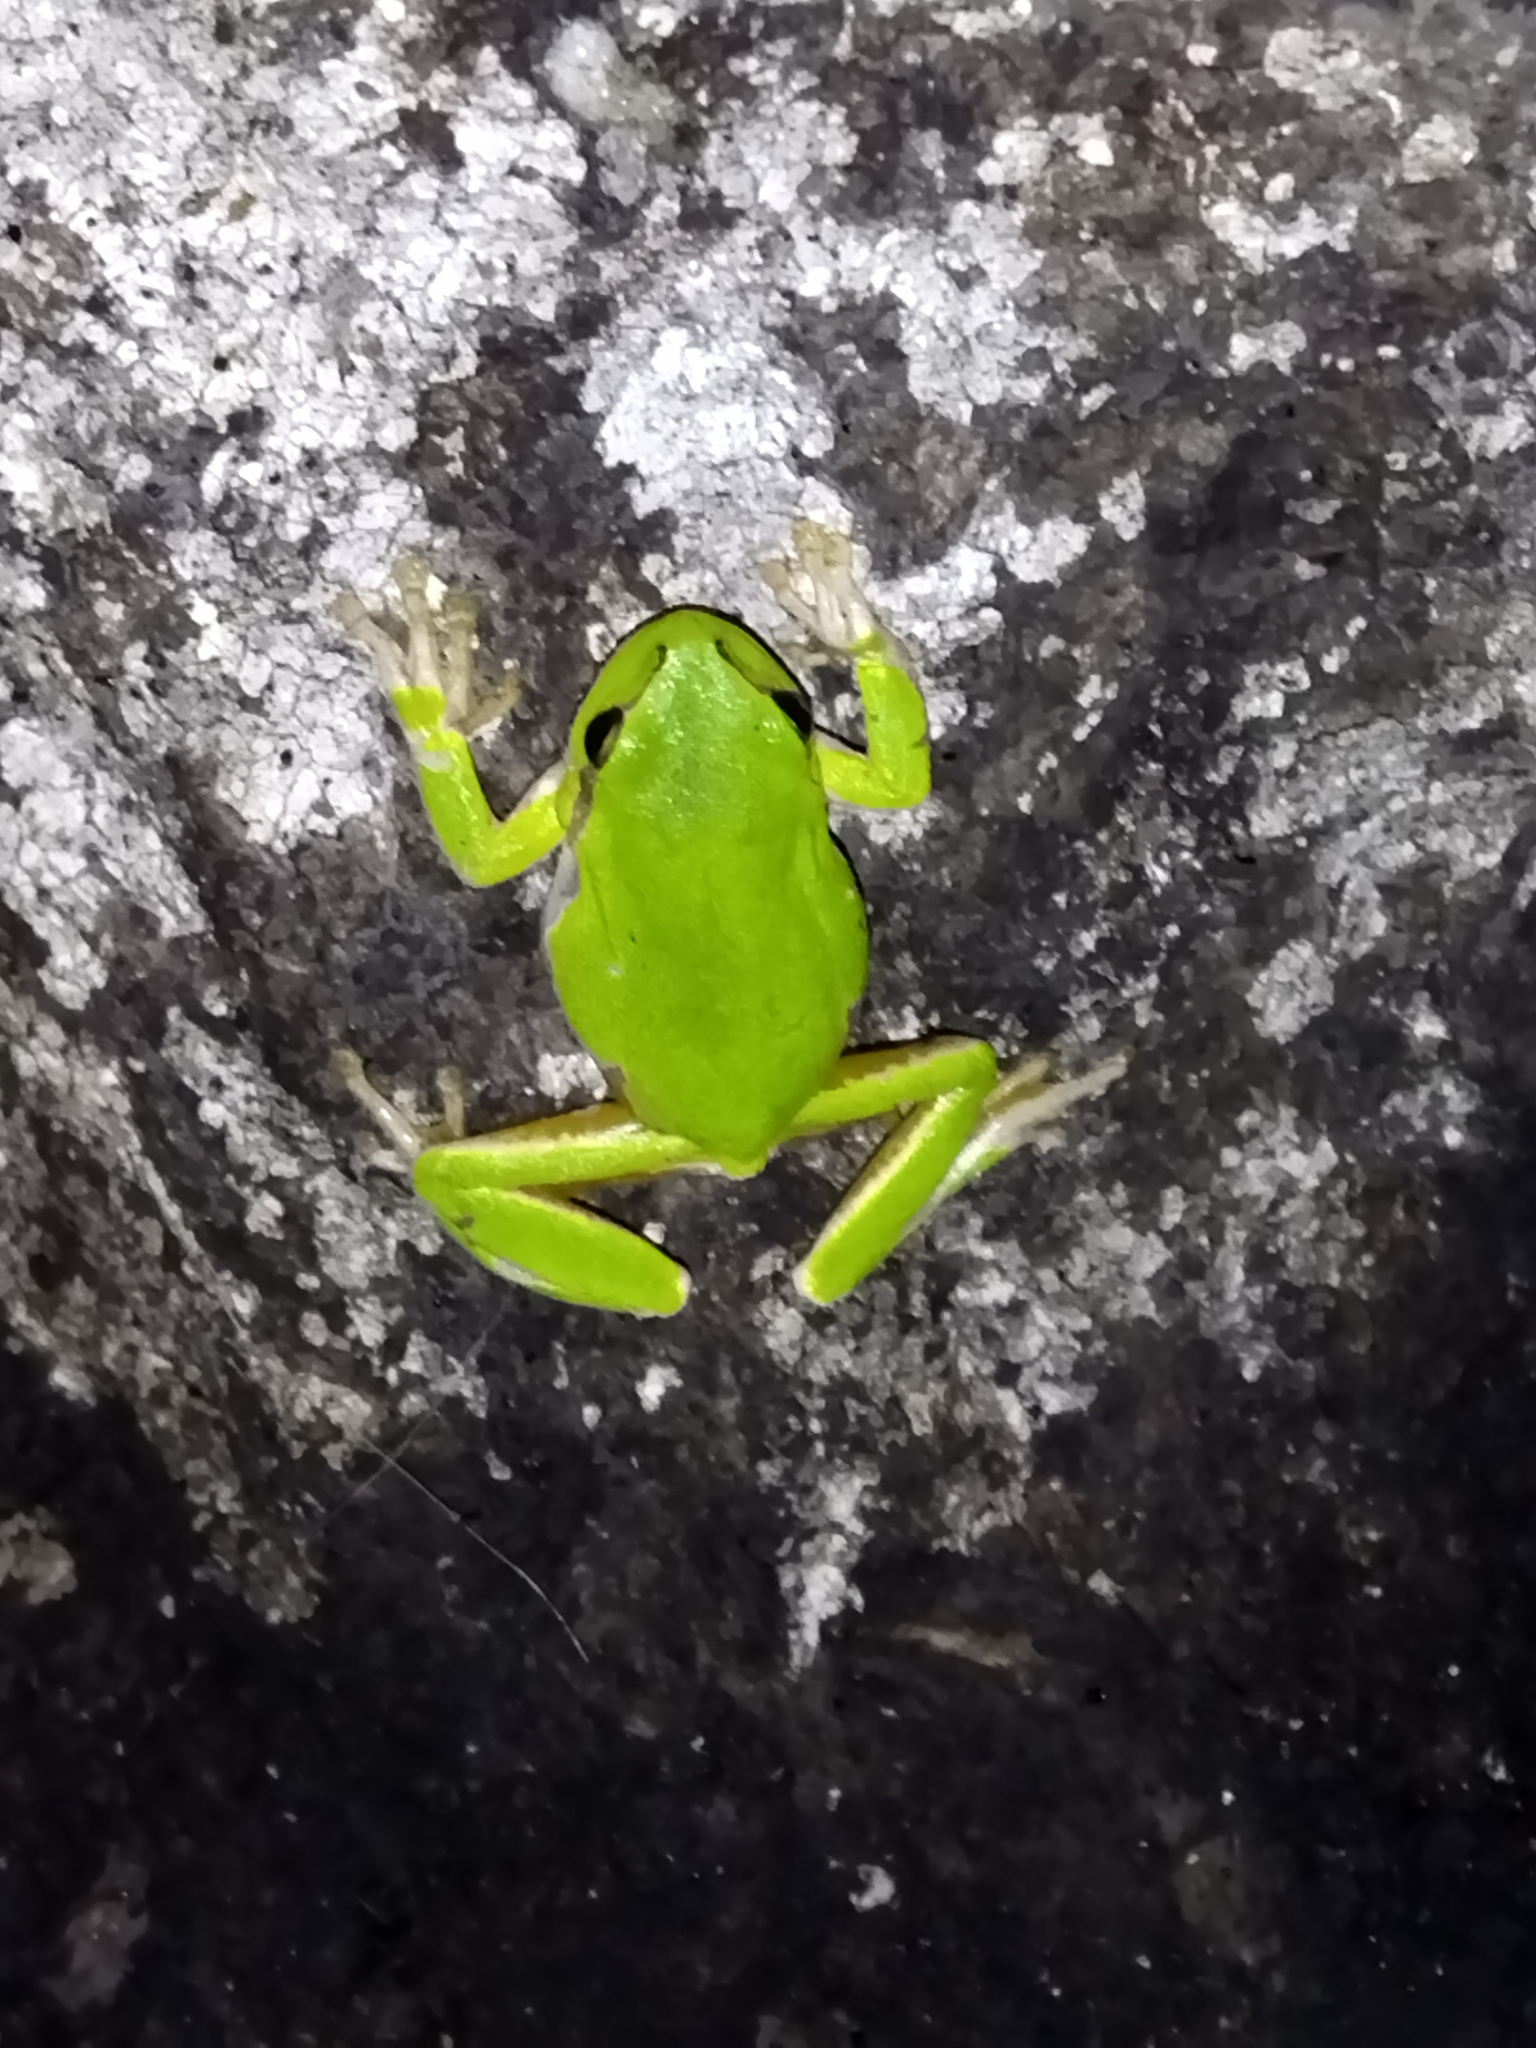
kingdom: Animalia
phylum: Chordata
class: Amphibia
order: Anura
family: Hylidae
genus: Hyla
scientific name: Hyla orientalis
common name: Caucasian treefrog
